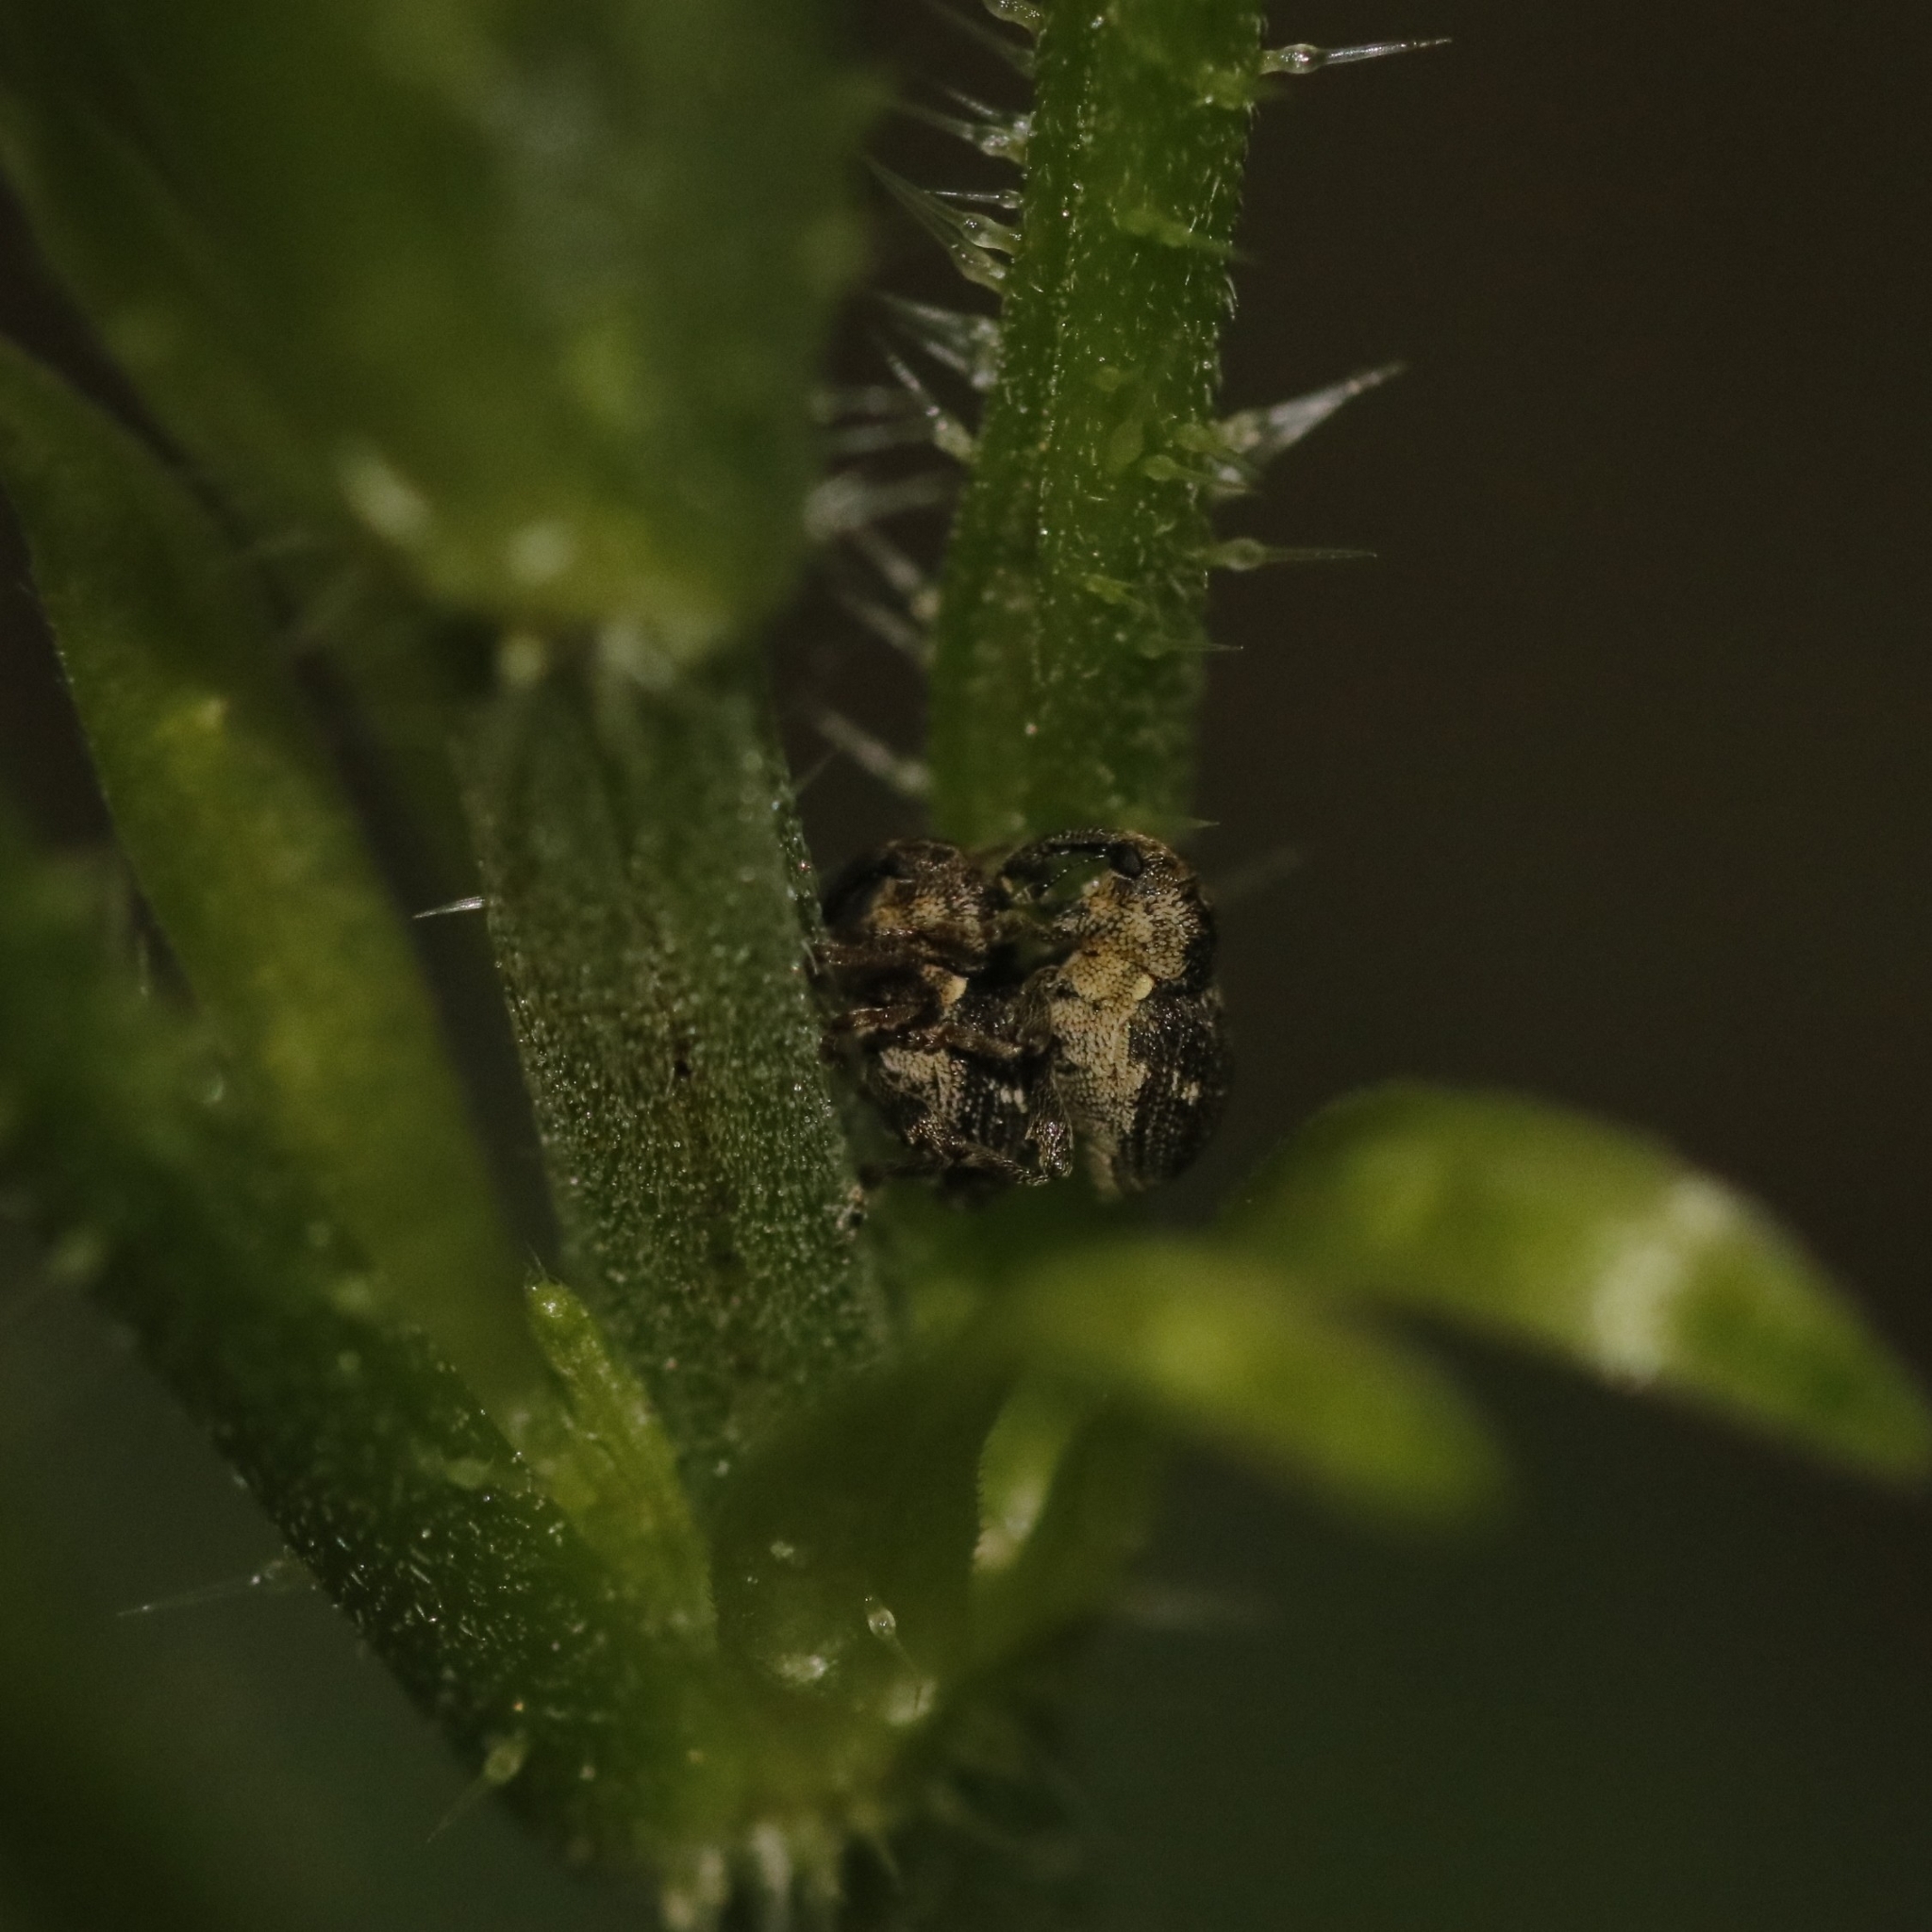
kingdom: Animalia
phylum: Arthropoda
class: Insecta
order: Coleoptera
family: Curculionidae
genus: Nedyus
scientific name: Nedyus quadrimaculatus
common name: Small nettle weevil
